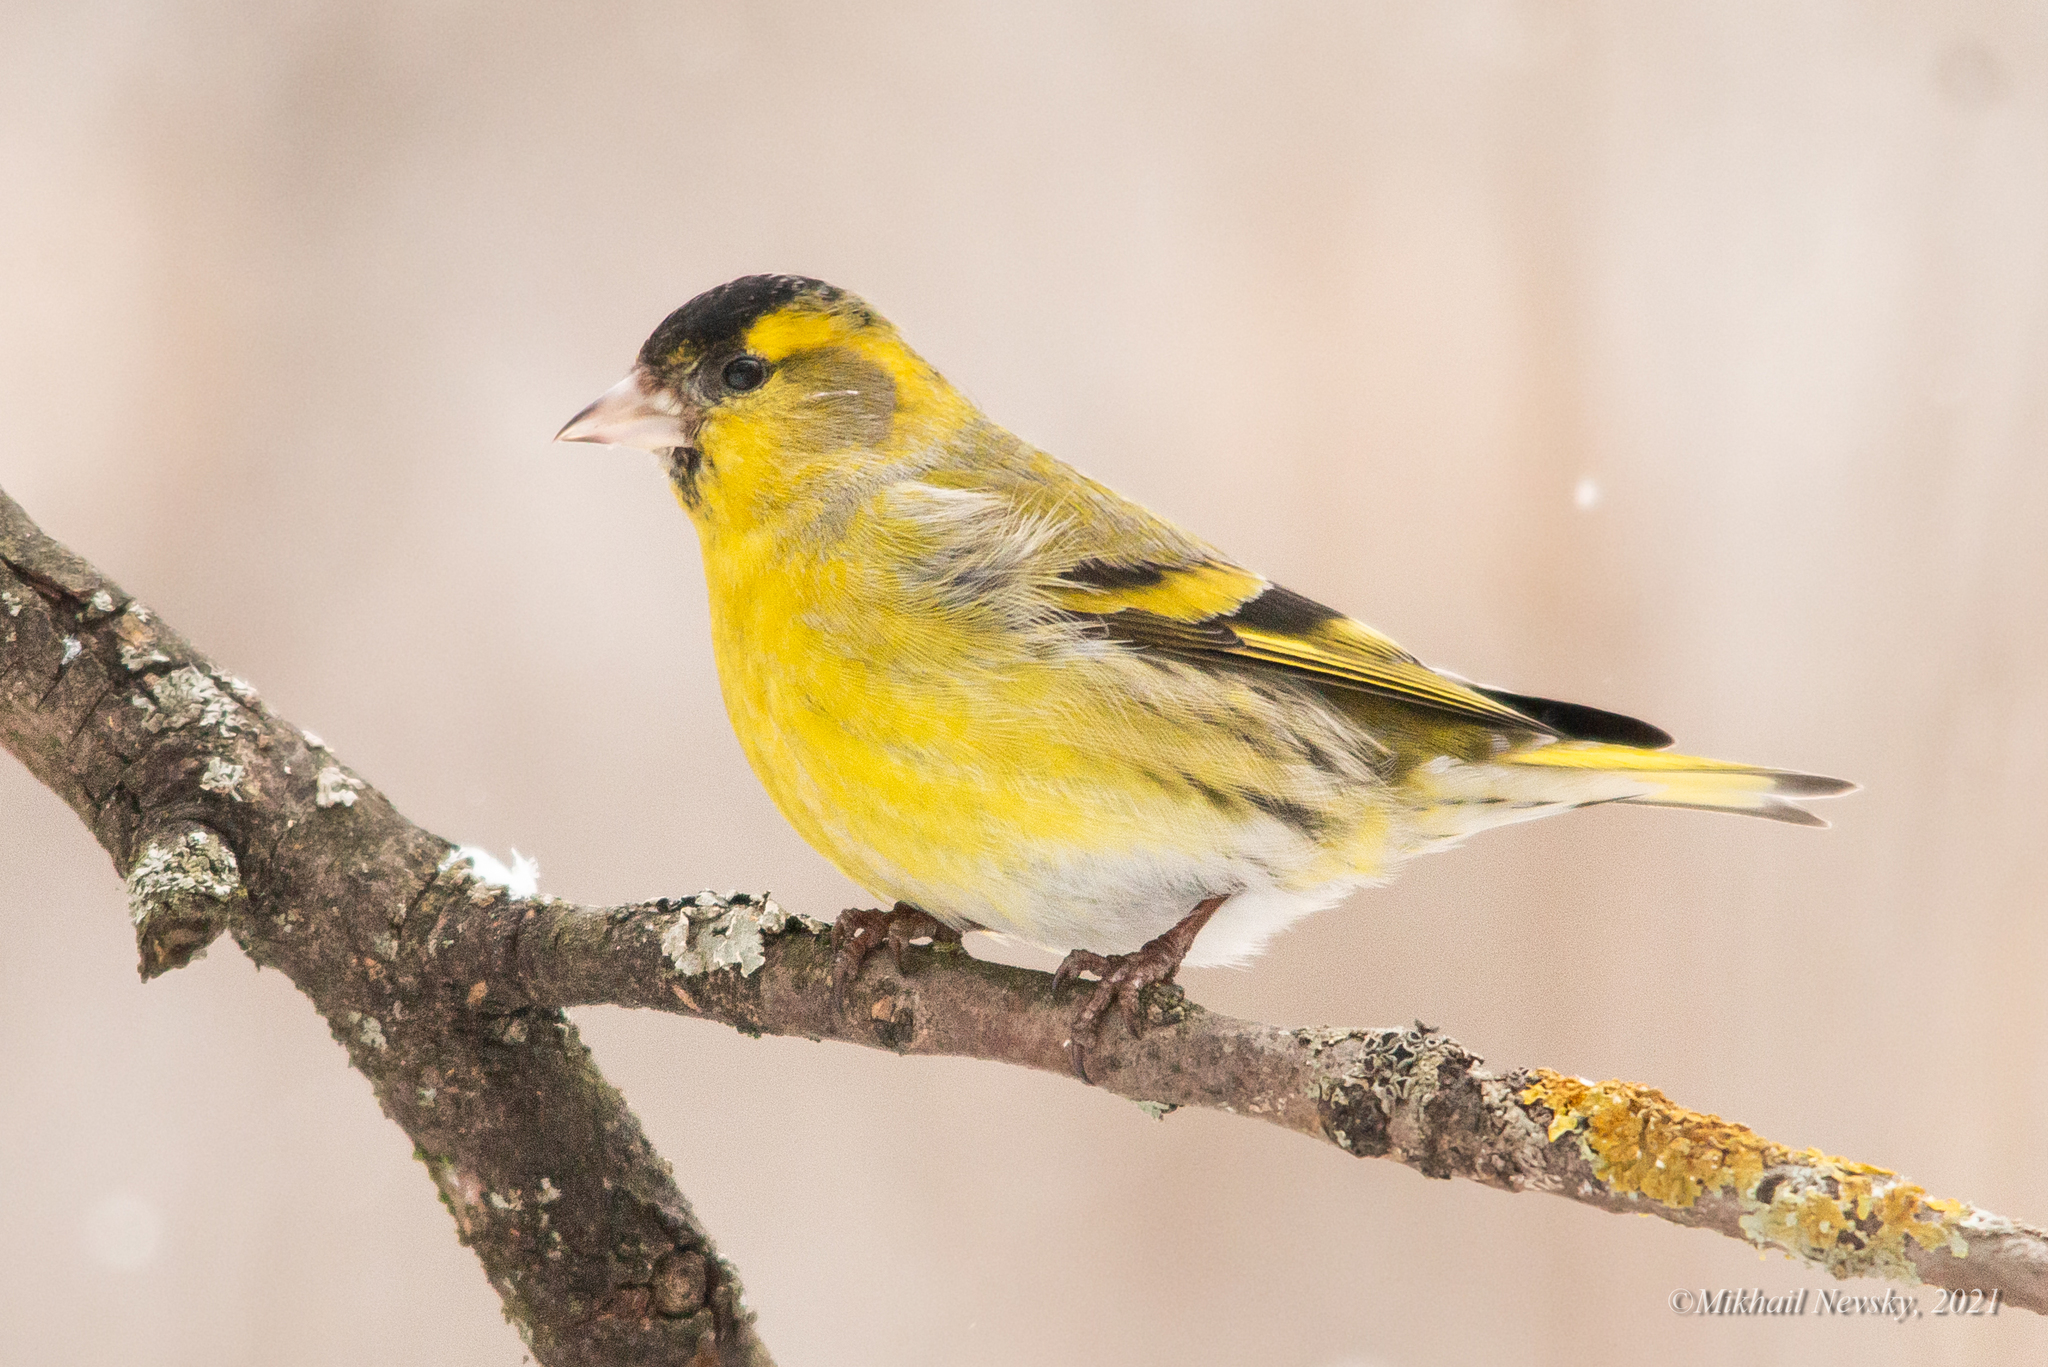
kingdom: Animalia
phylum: Chordata
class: Aves
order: Passeriformes
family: Fringillidae
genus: Spinus
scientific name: Spinus spinus
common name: Eurasian siskin
